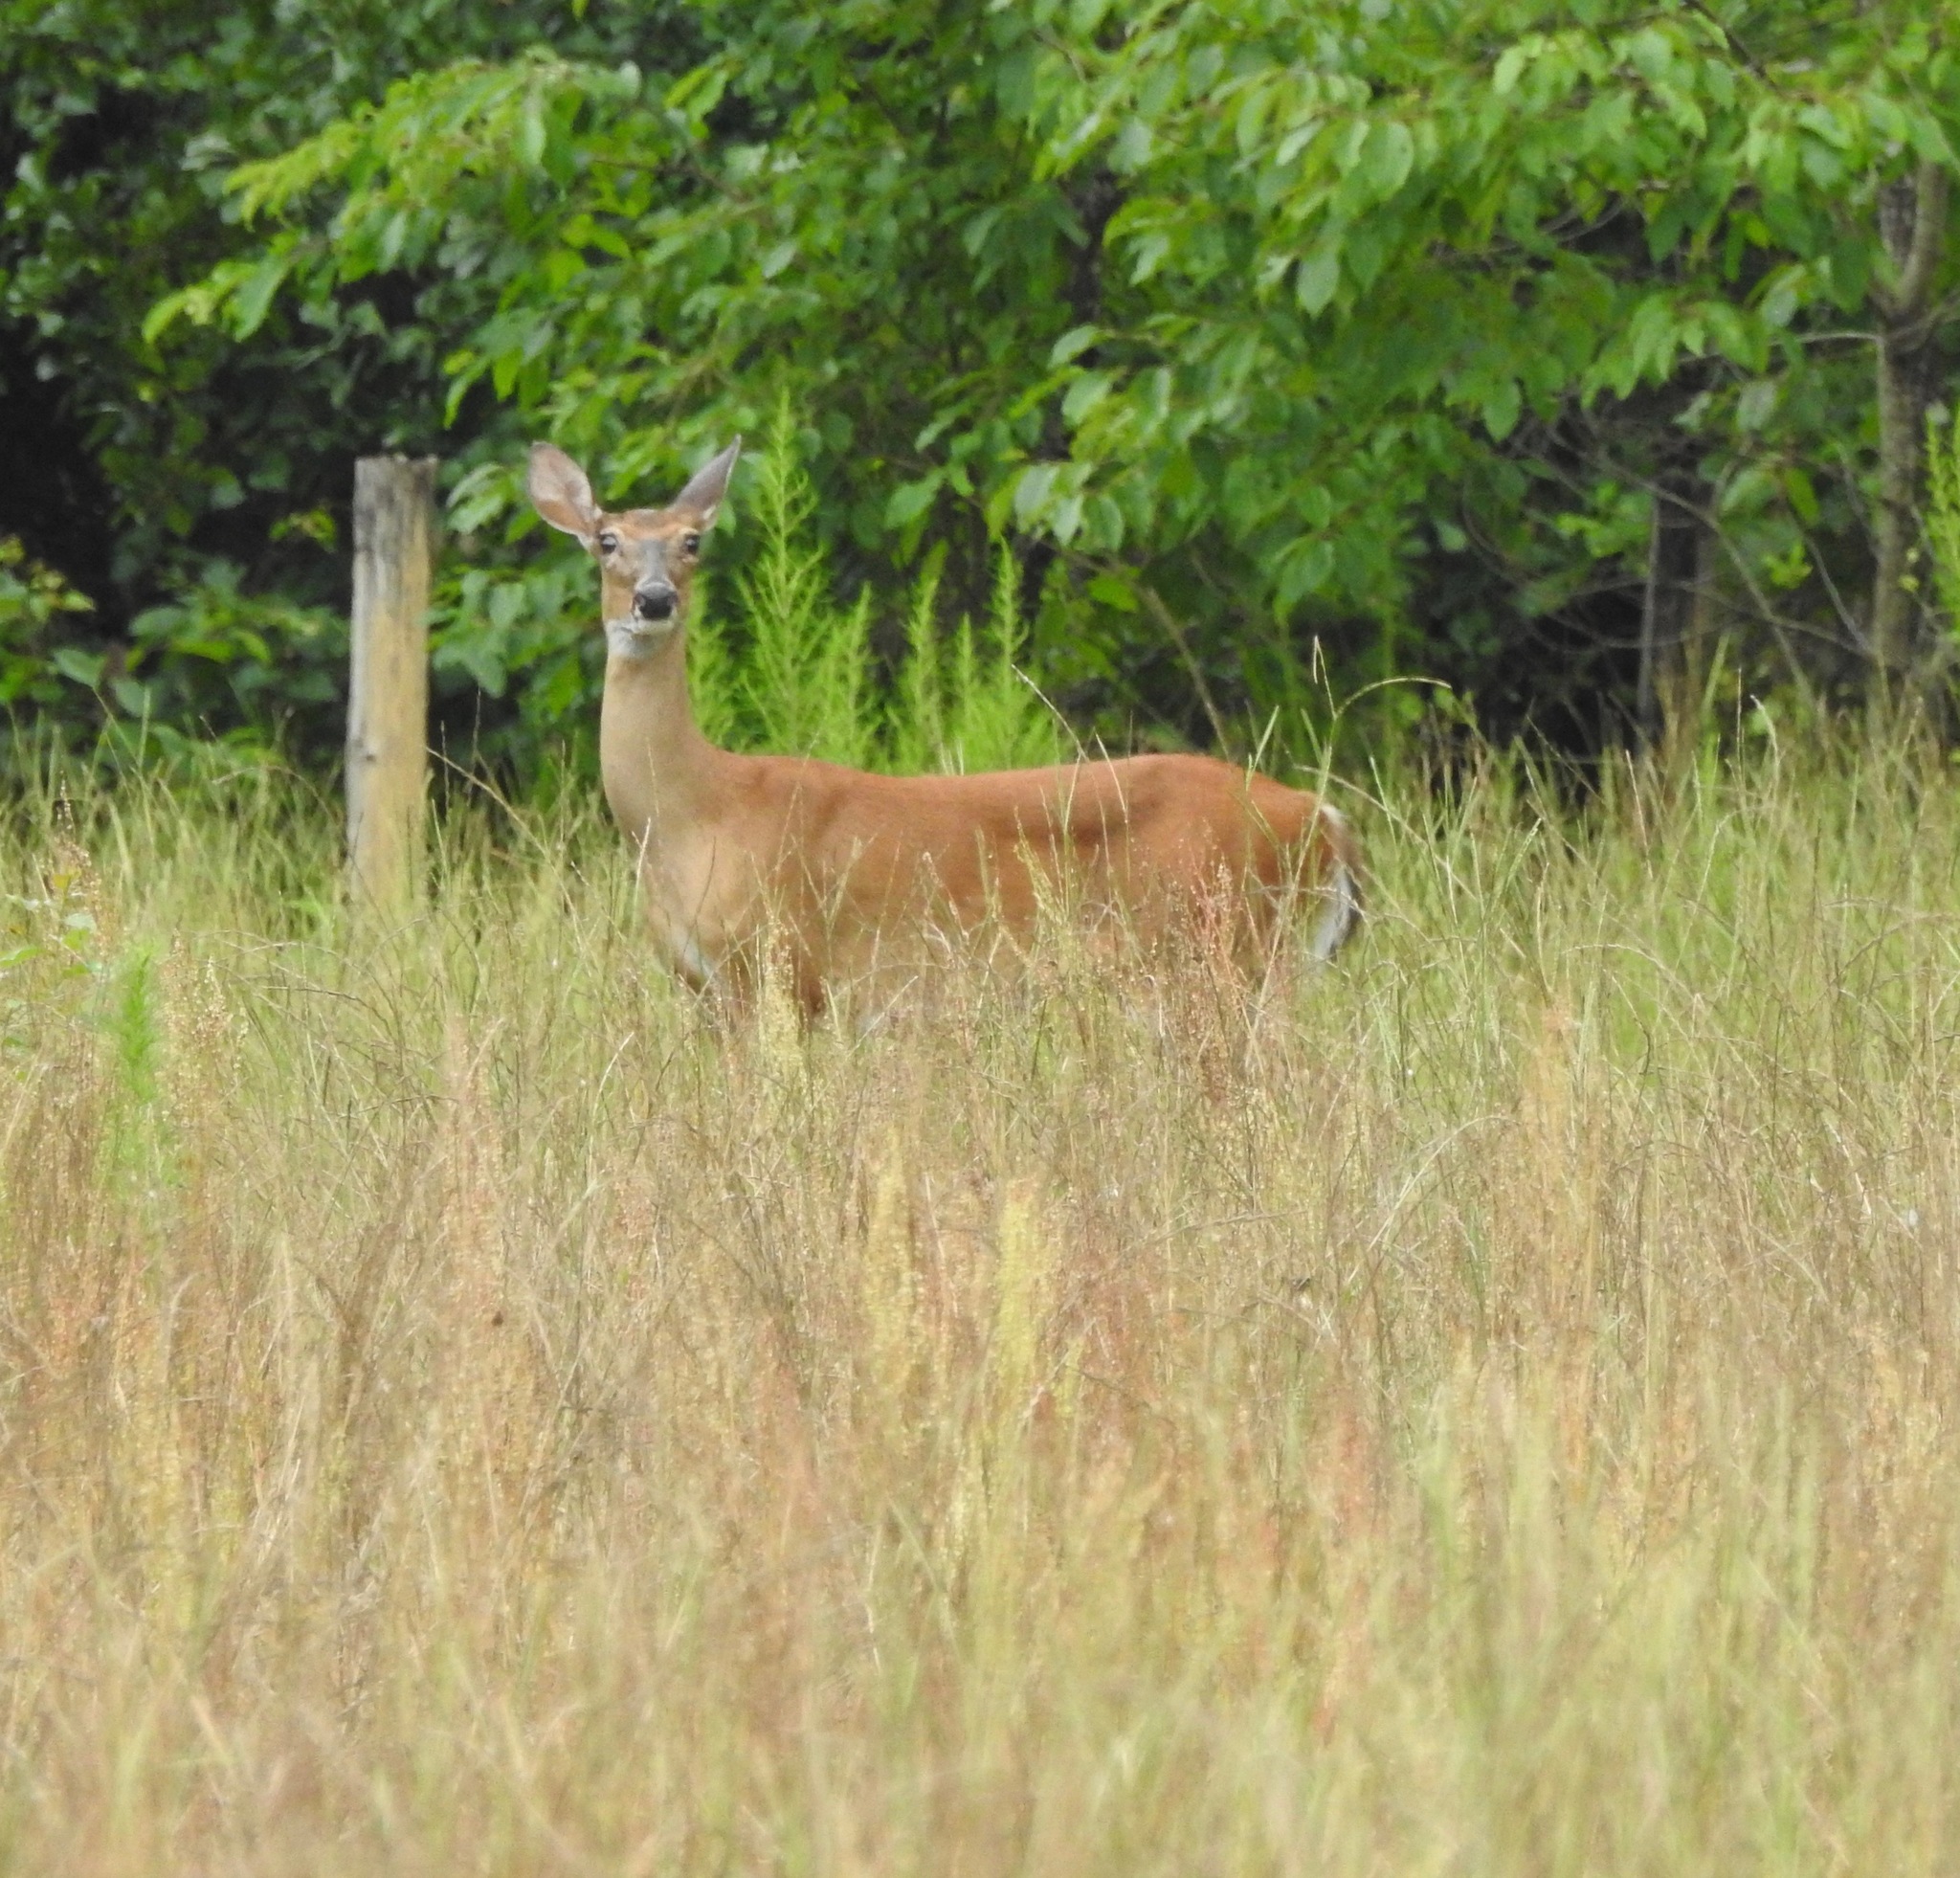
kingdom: Animalia
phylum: Chordata
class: Mammalia
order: Artiodactyla
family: Cervidae
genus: Odocoileus
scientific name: Odocoileus virginianus
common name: White-tailed deer
